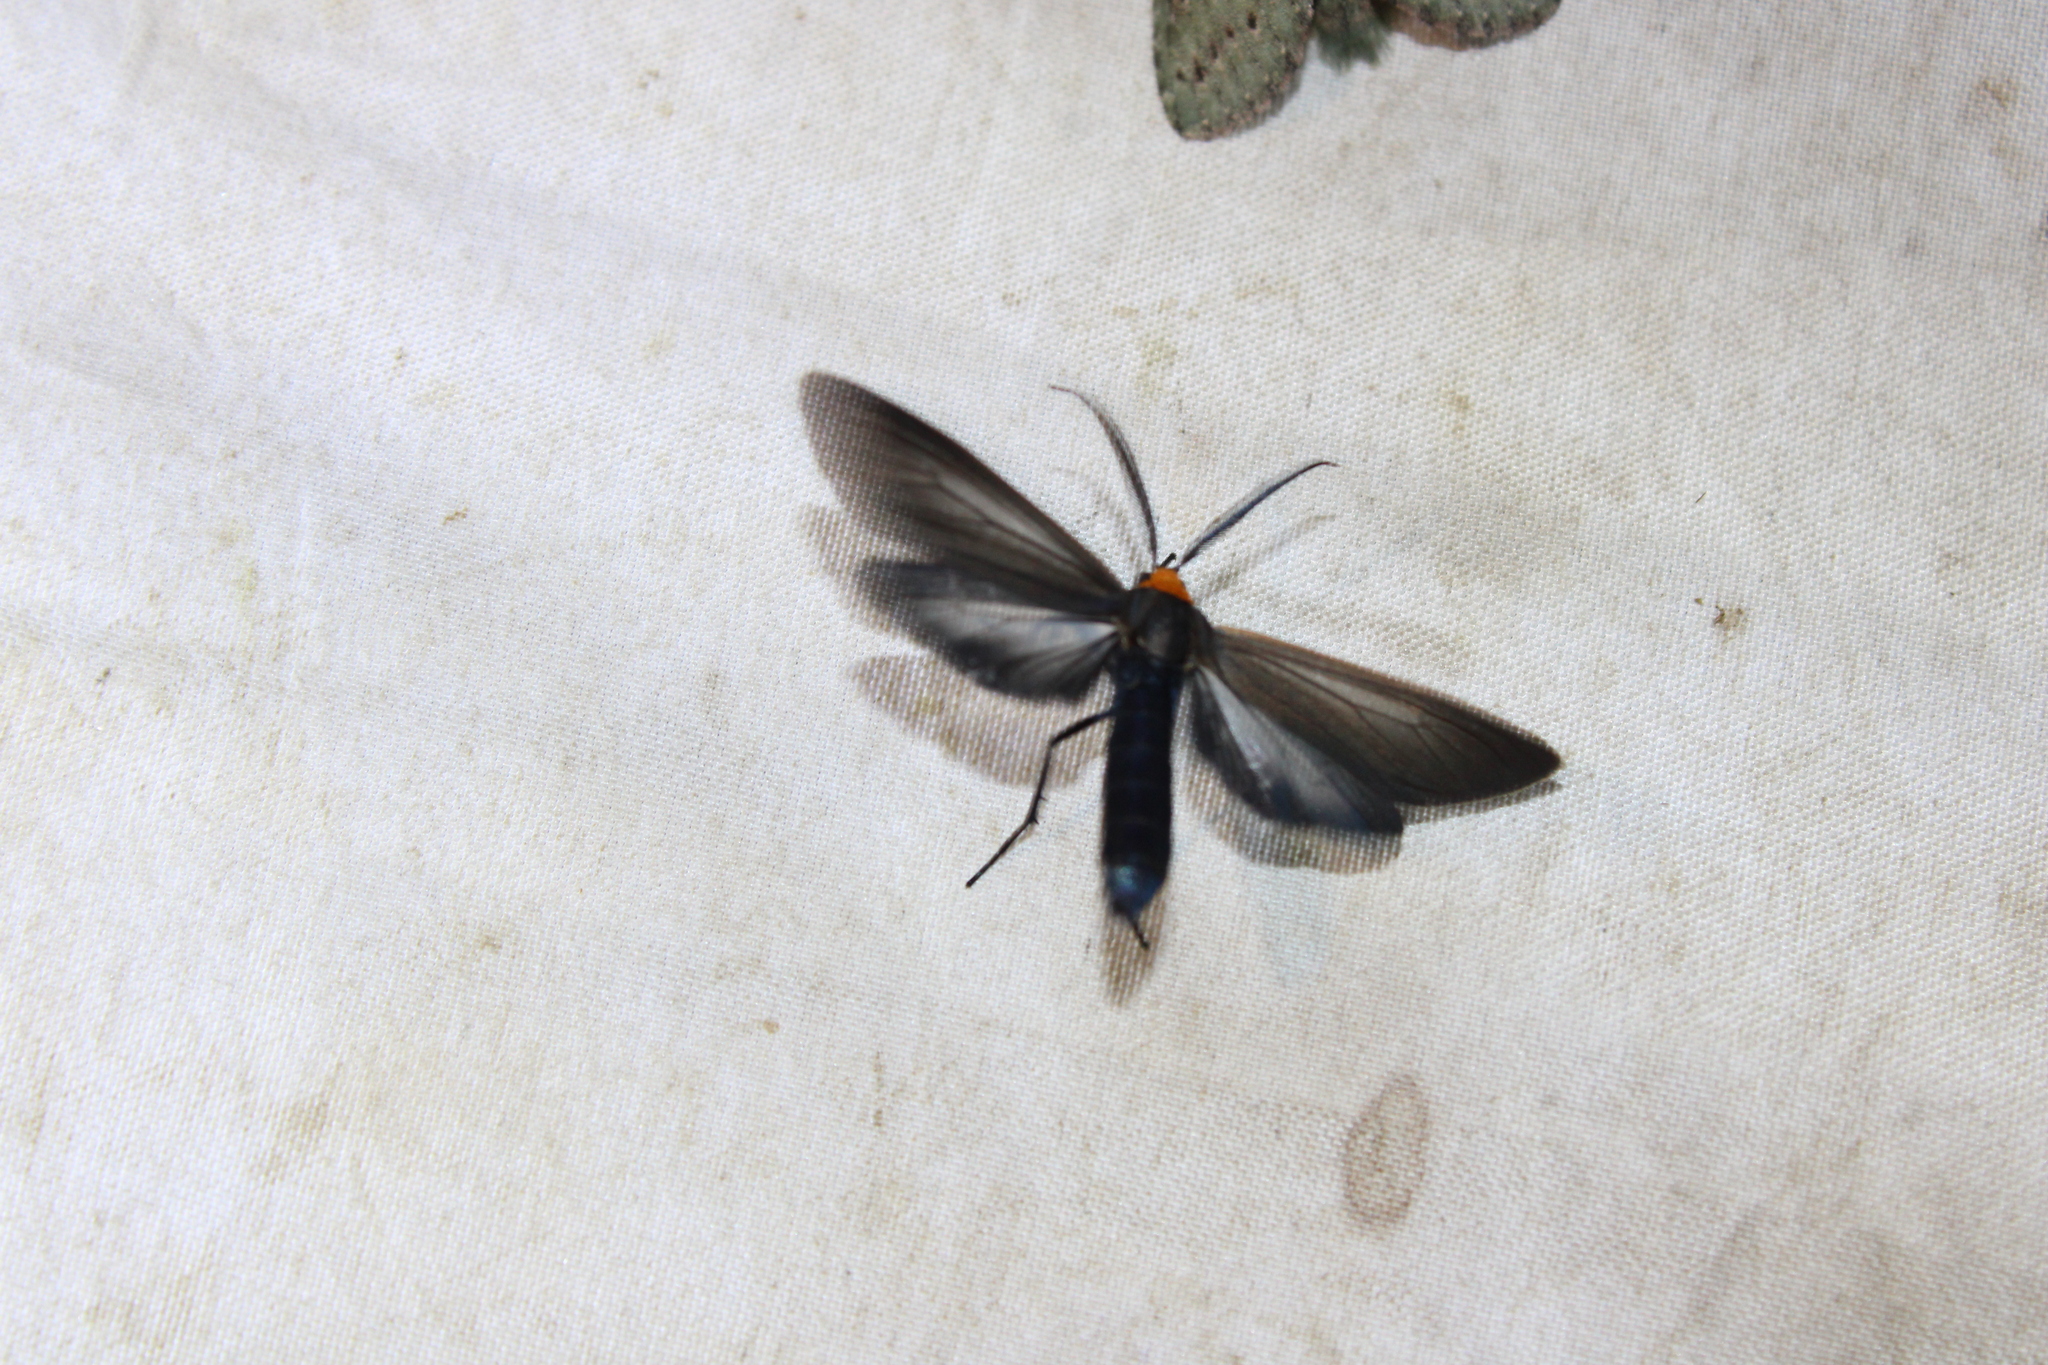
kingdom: Animalia
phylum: Arthropoda
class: Insecta
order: Lepidoptera
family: Erebidae
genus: Cisseps
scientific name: Cisseps fulvicollis
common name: Yellow-collared scape moth
